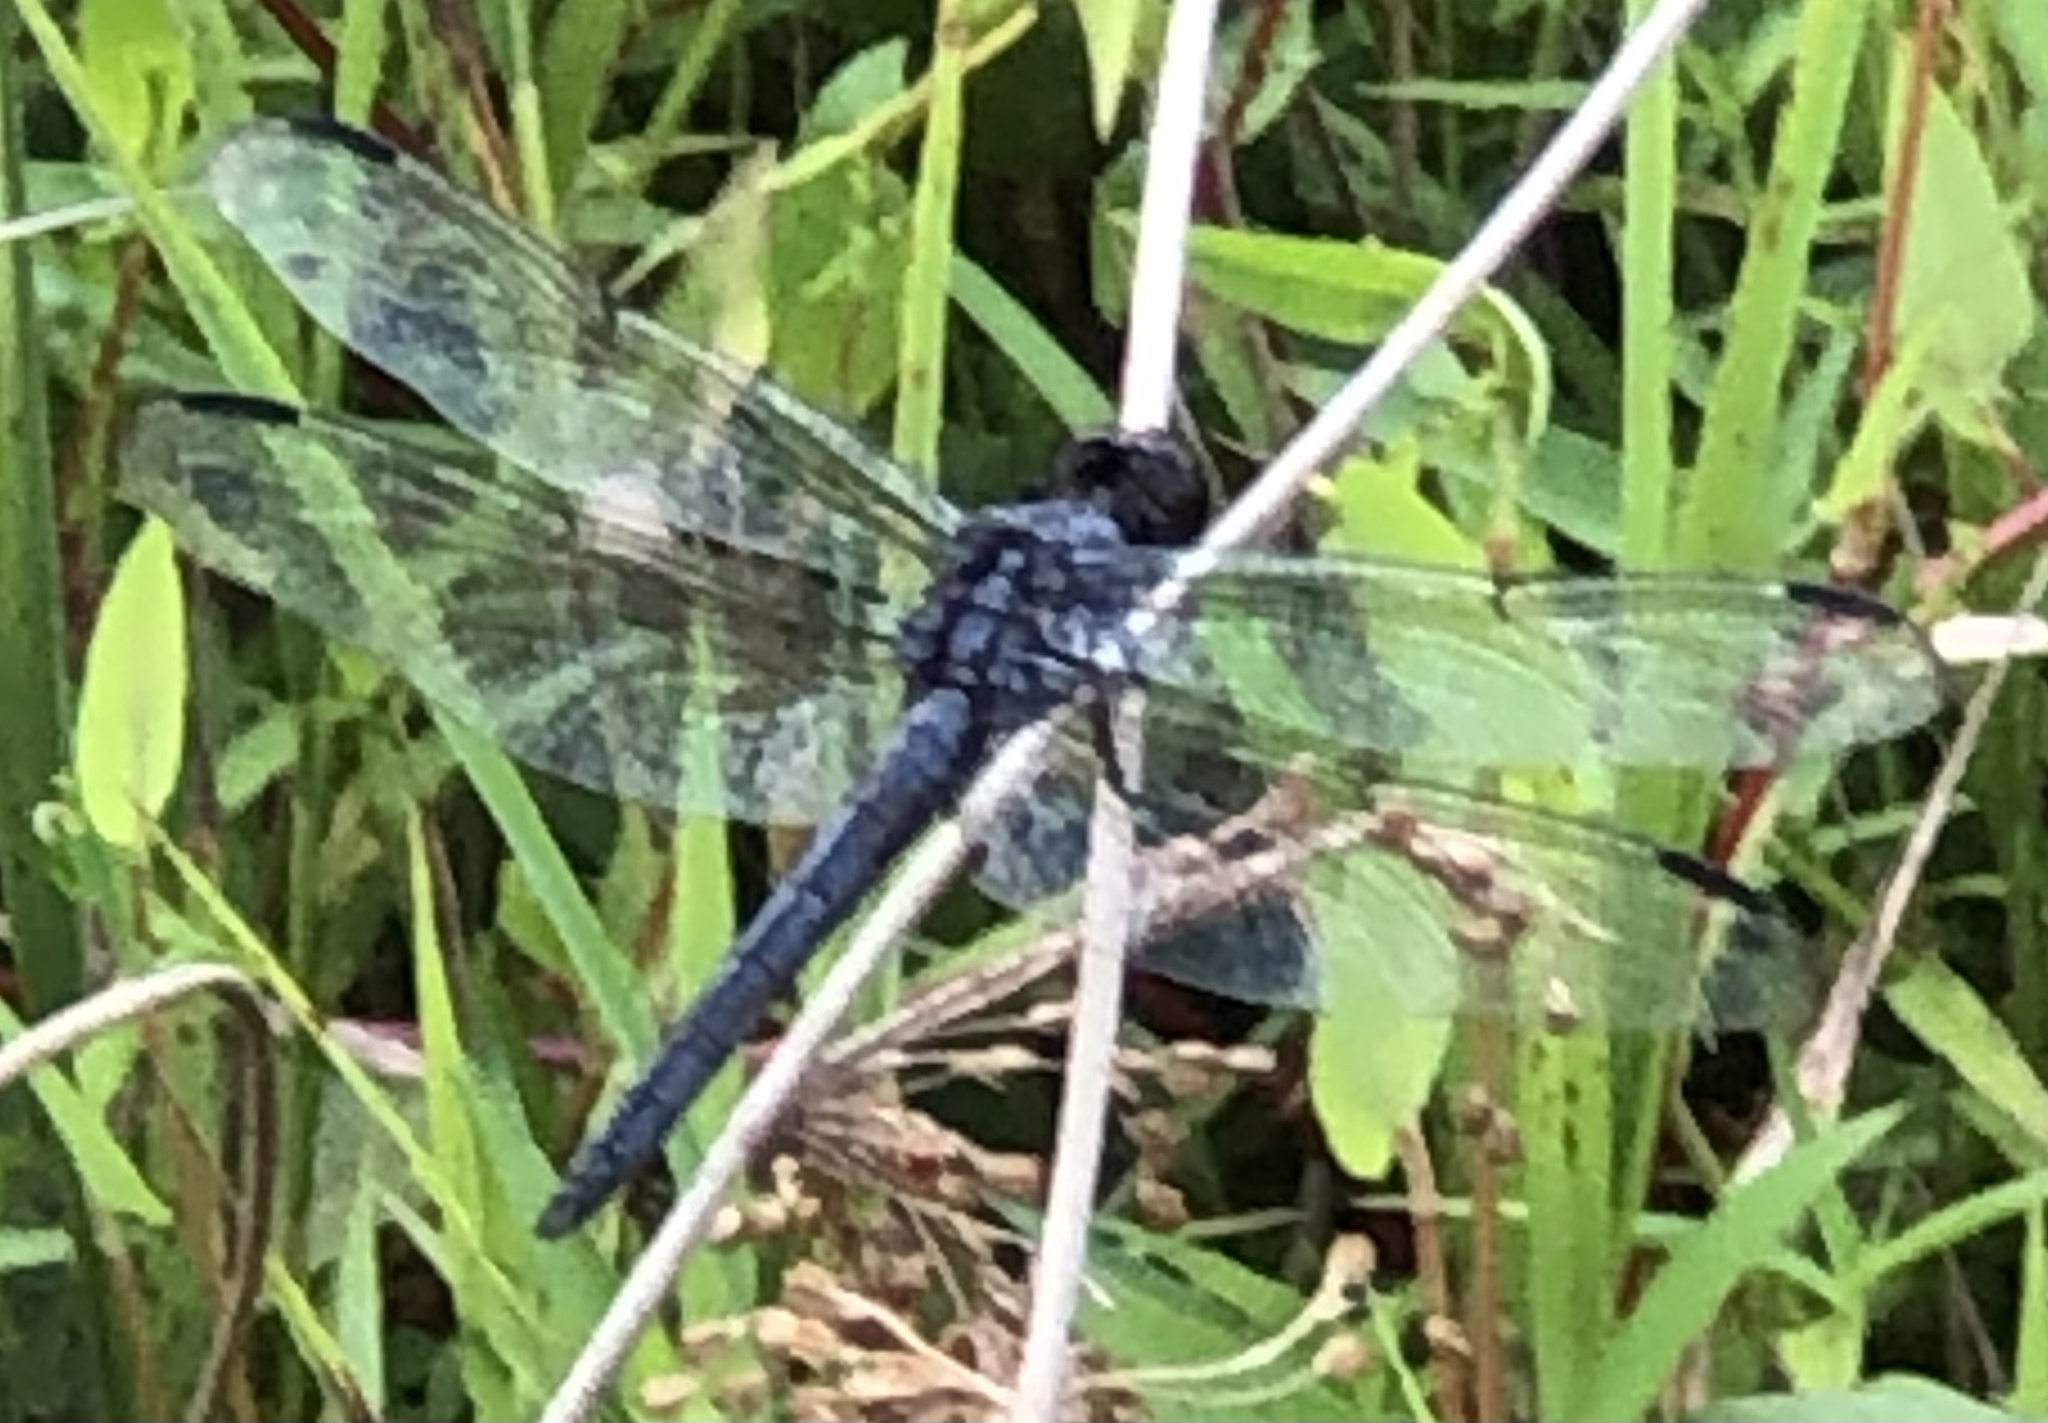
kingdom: Animalia
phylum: Arthropoda
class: Insecta
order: Odonata
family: Libellulidae
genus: Libellula
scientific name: Libellula incesta
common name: Slaty skimmer
